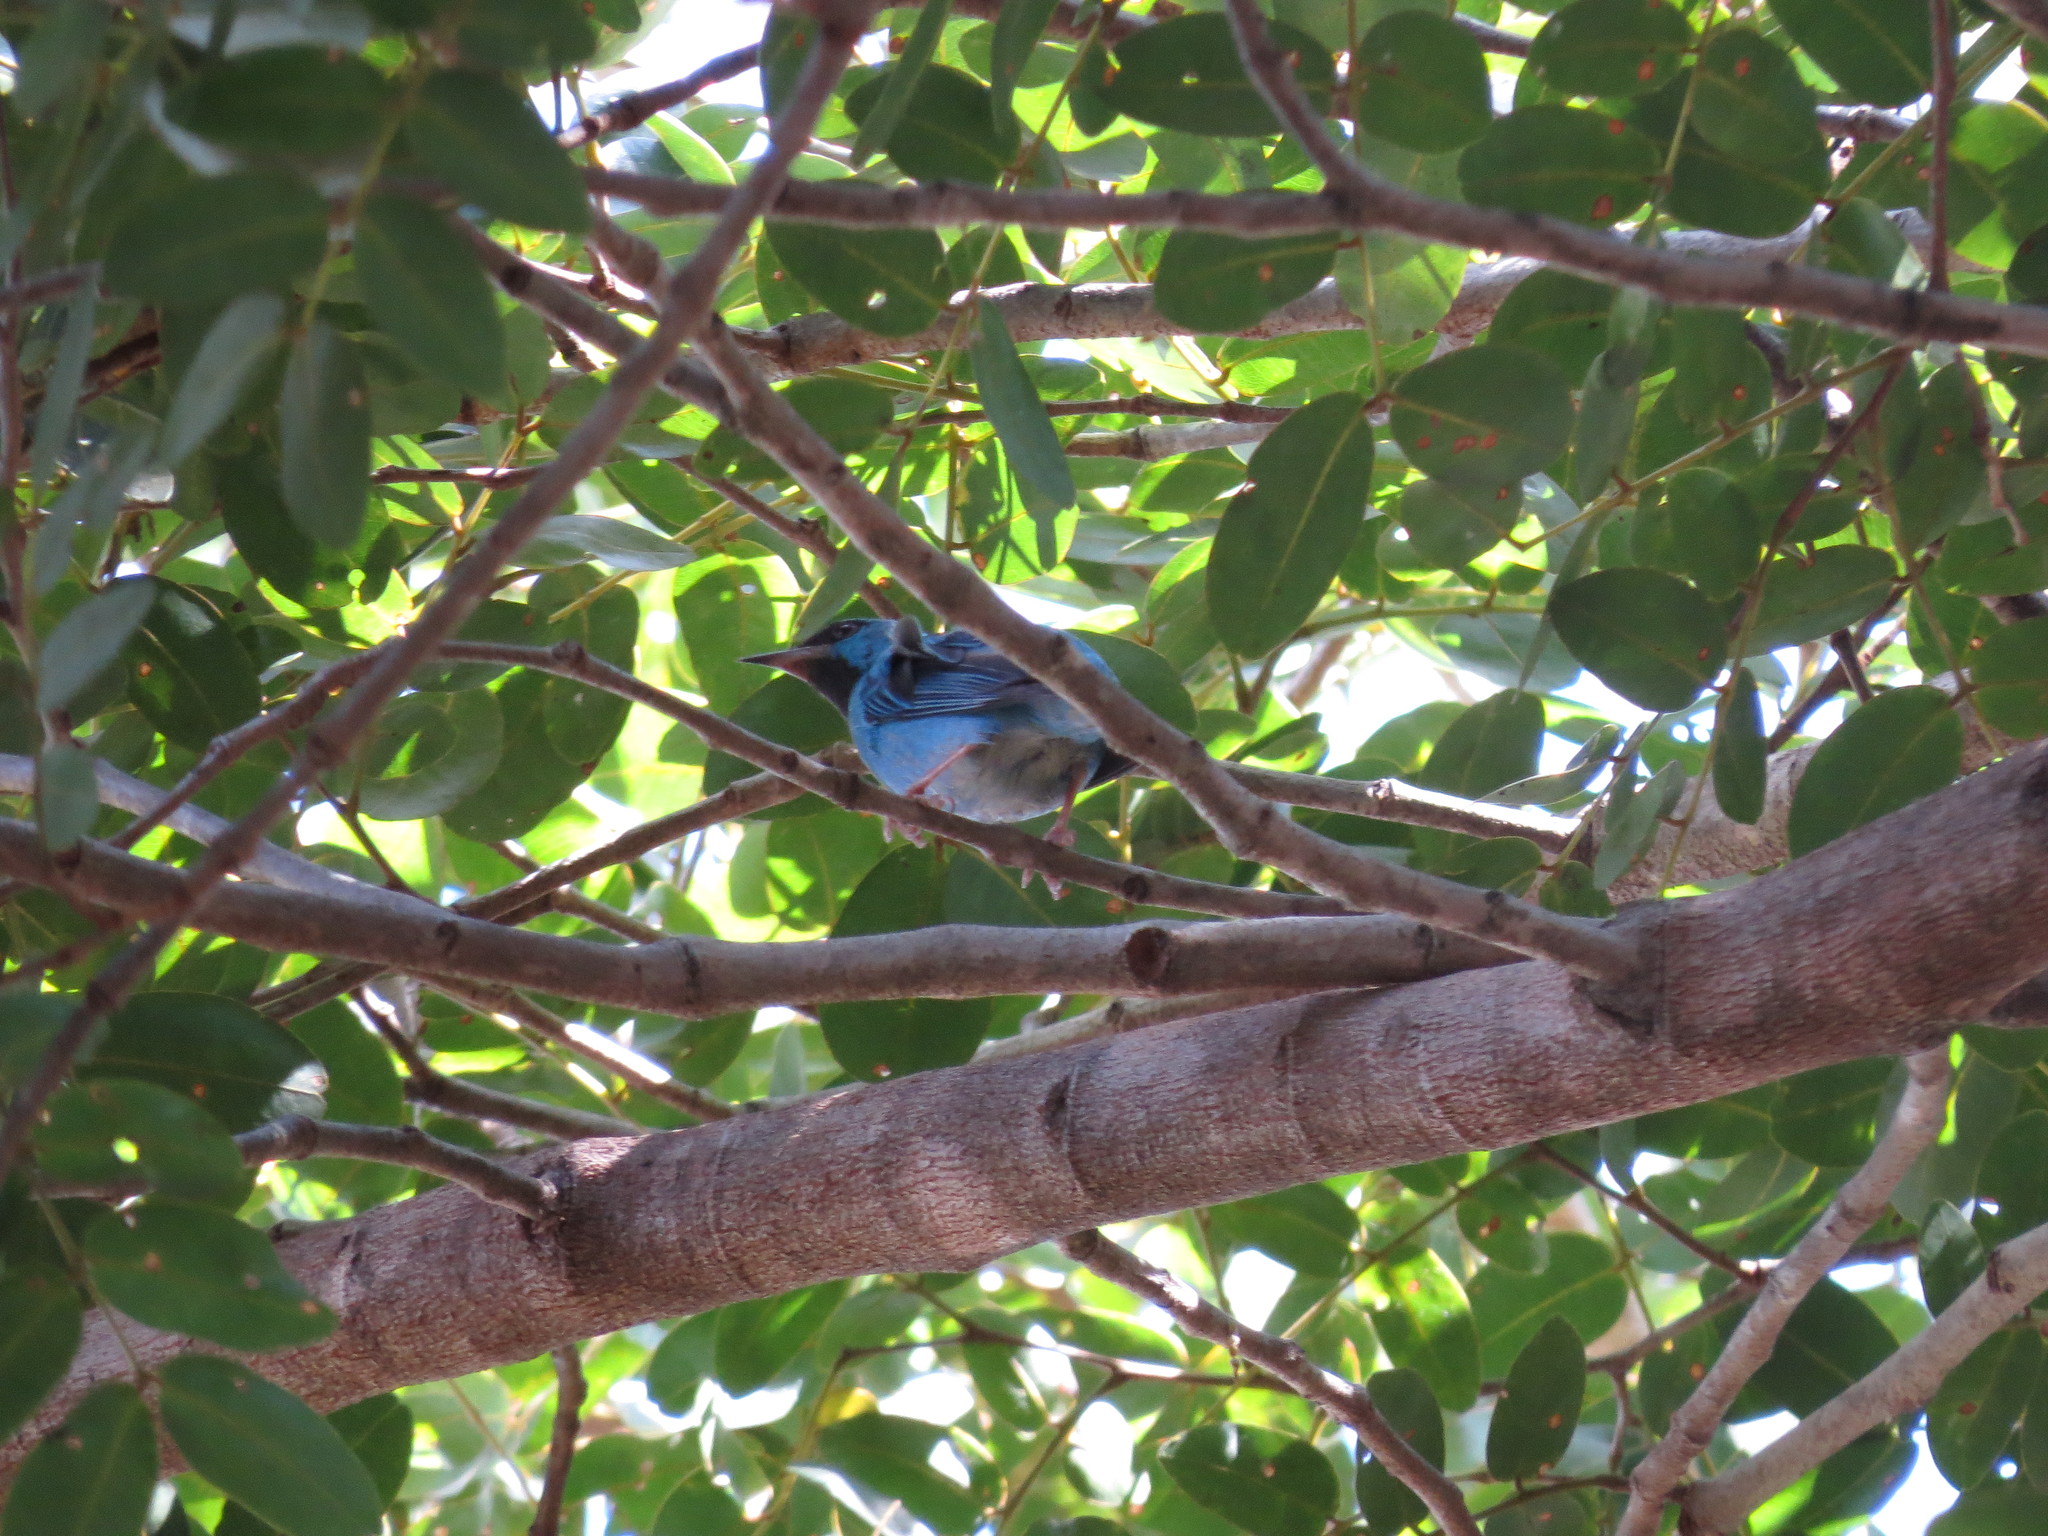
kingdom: Animalia
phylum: Chordata
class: Aves
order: Passeriformes
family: Thraupidae
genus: Dacnis
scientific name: Dacnis cayana
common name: Blue dacnis
